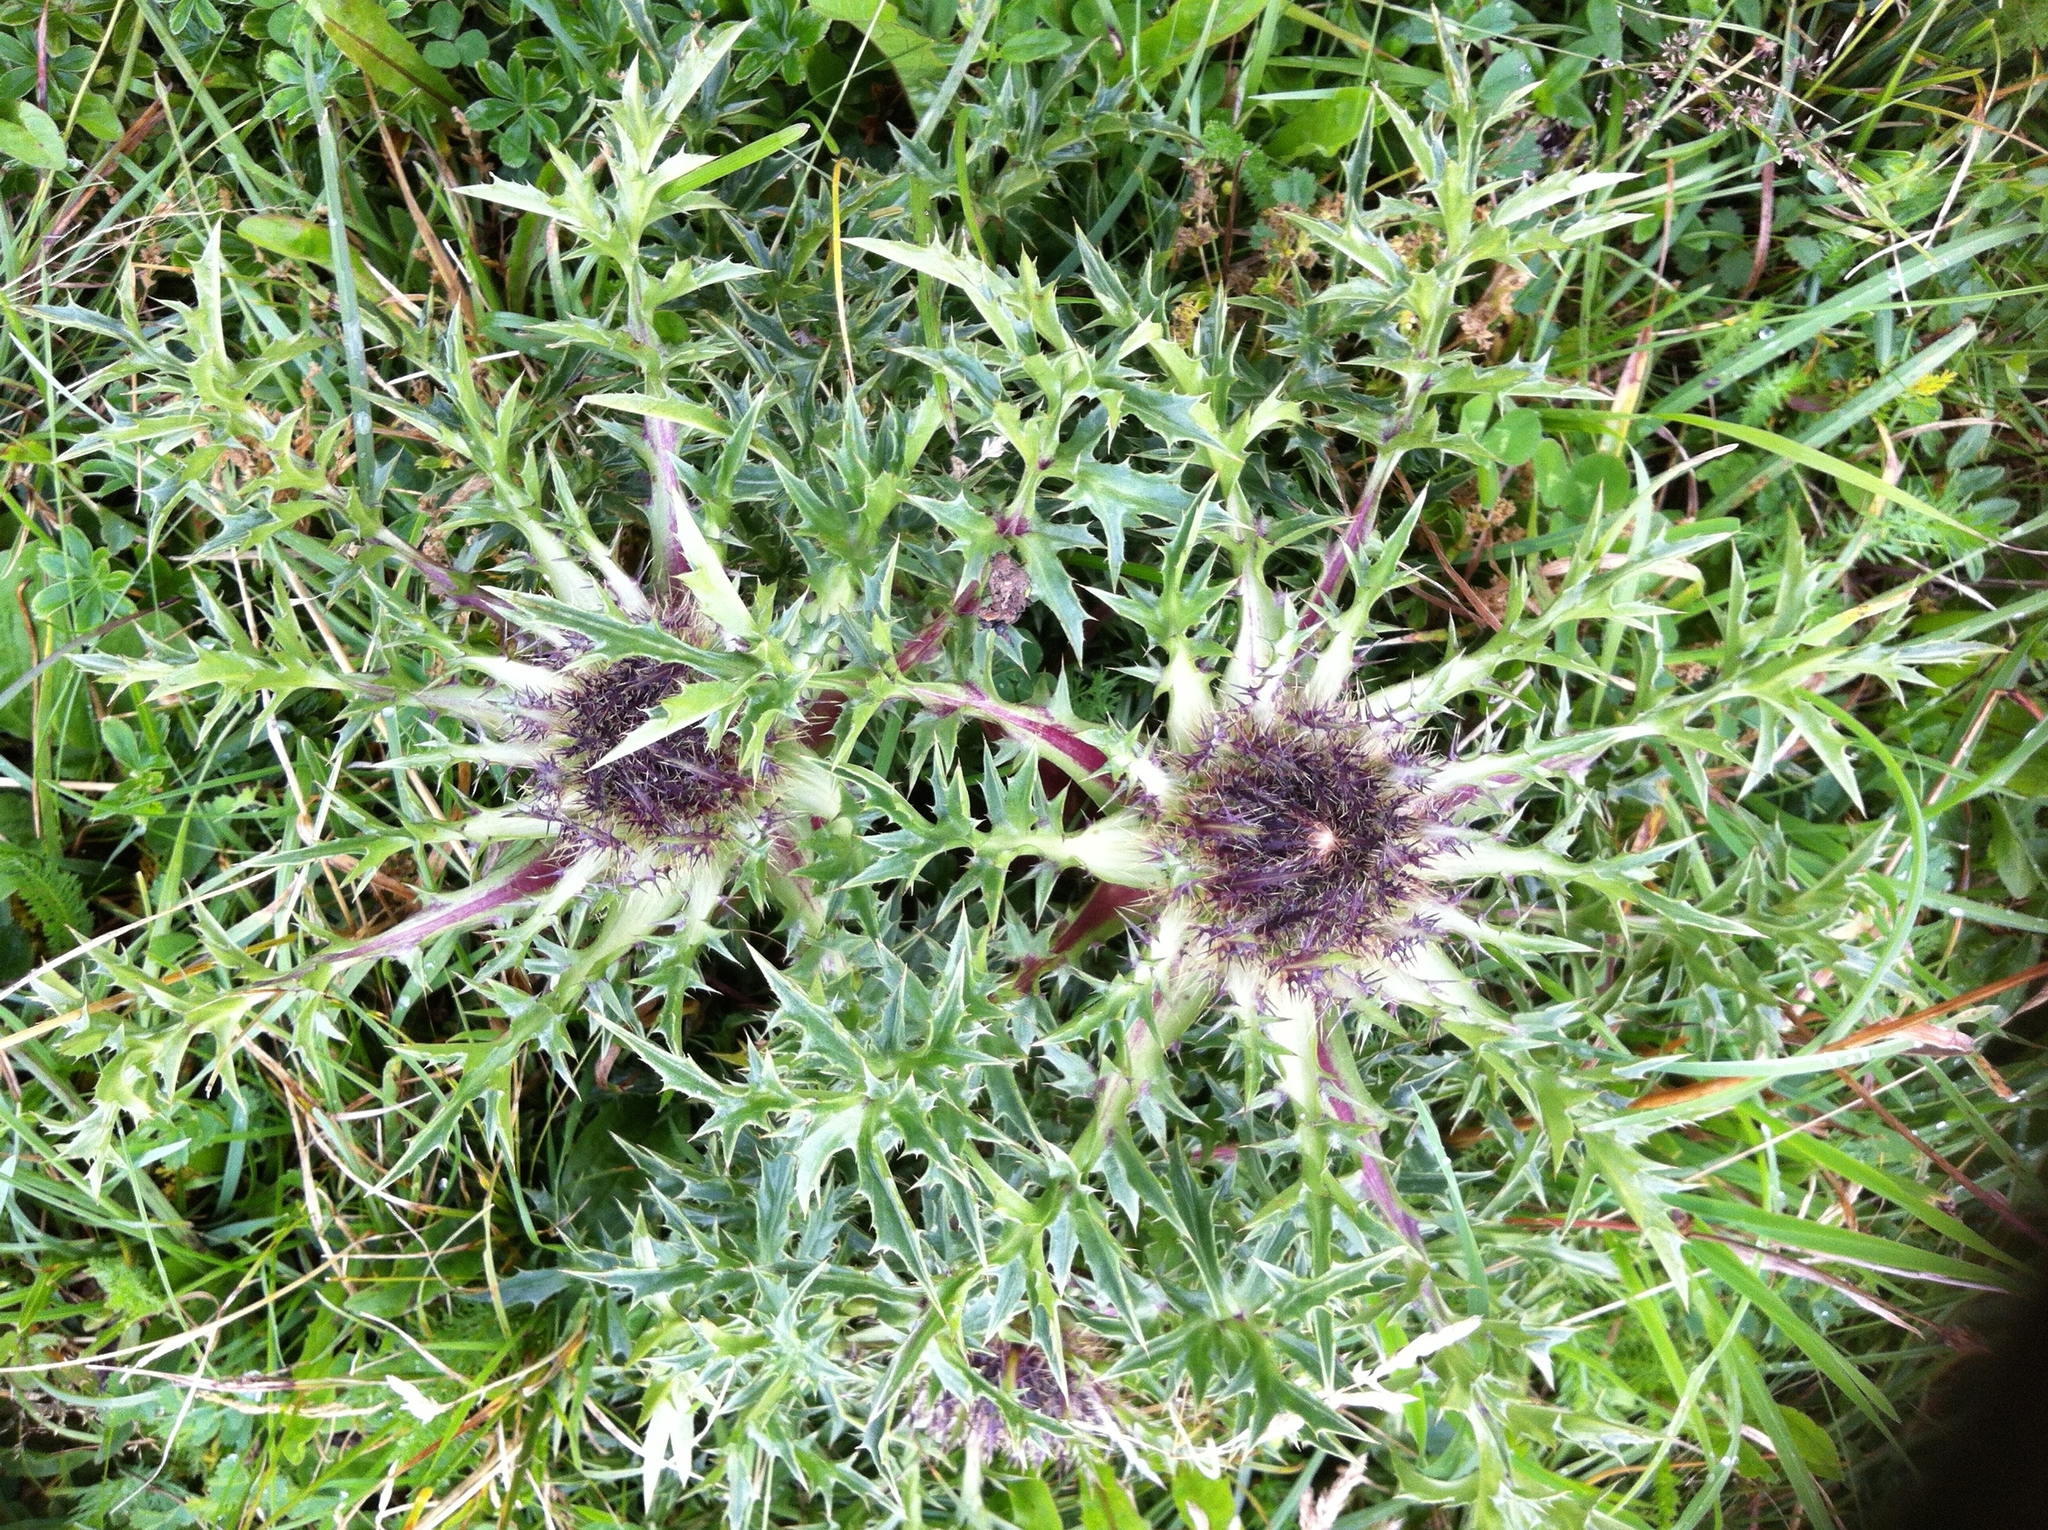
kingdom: Plantae
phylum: Tracheophyta
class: Magnoliopsida
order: Asterales
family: Asteraceae
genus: Carlina
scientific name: Carlina acaulis
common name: Stemless carline thistle
